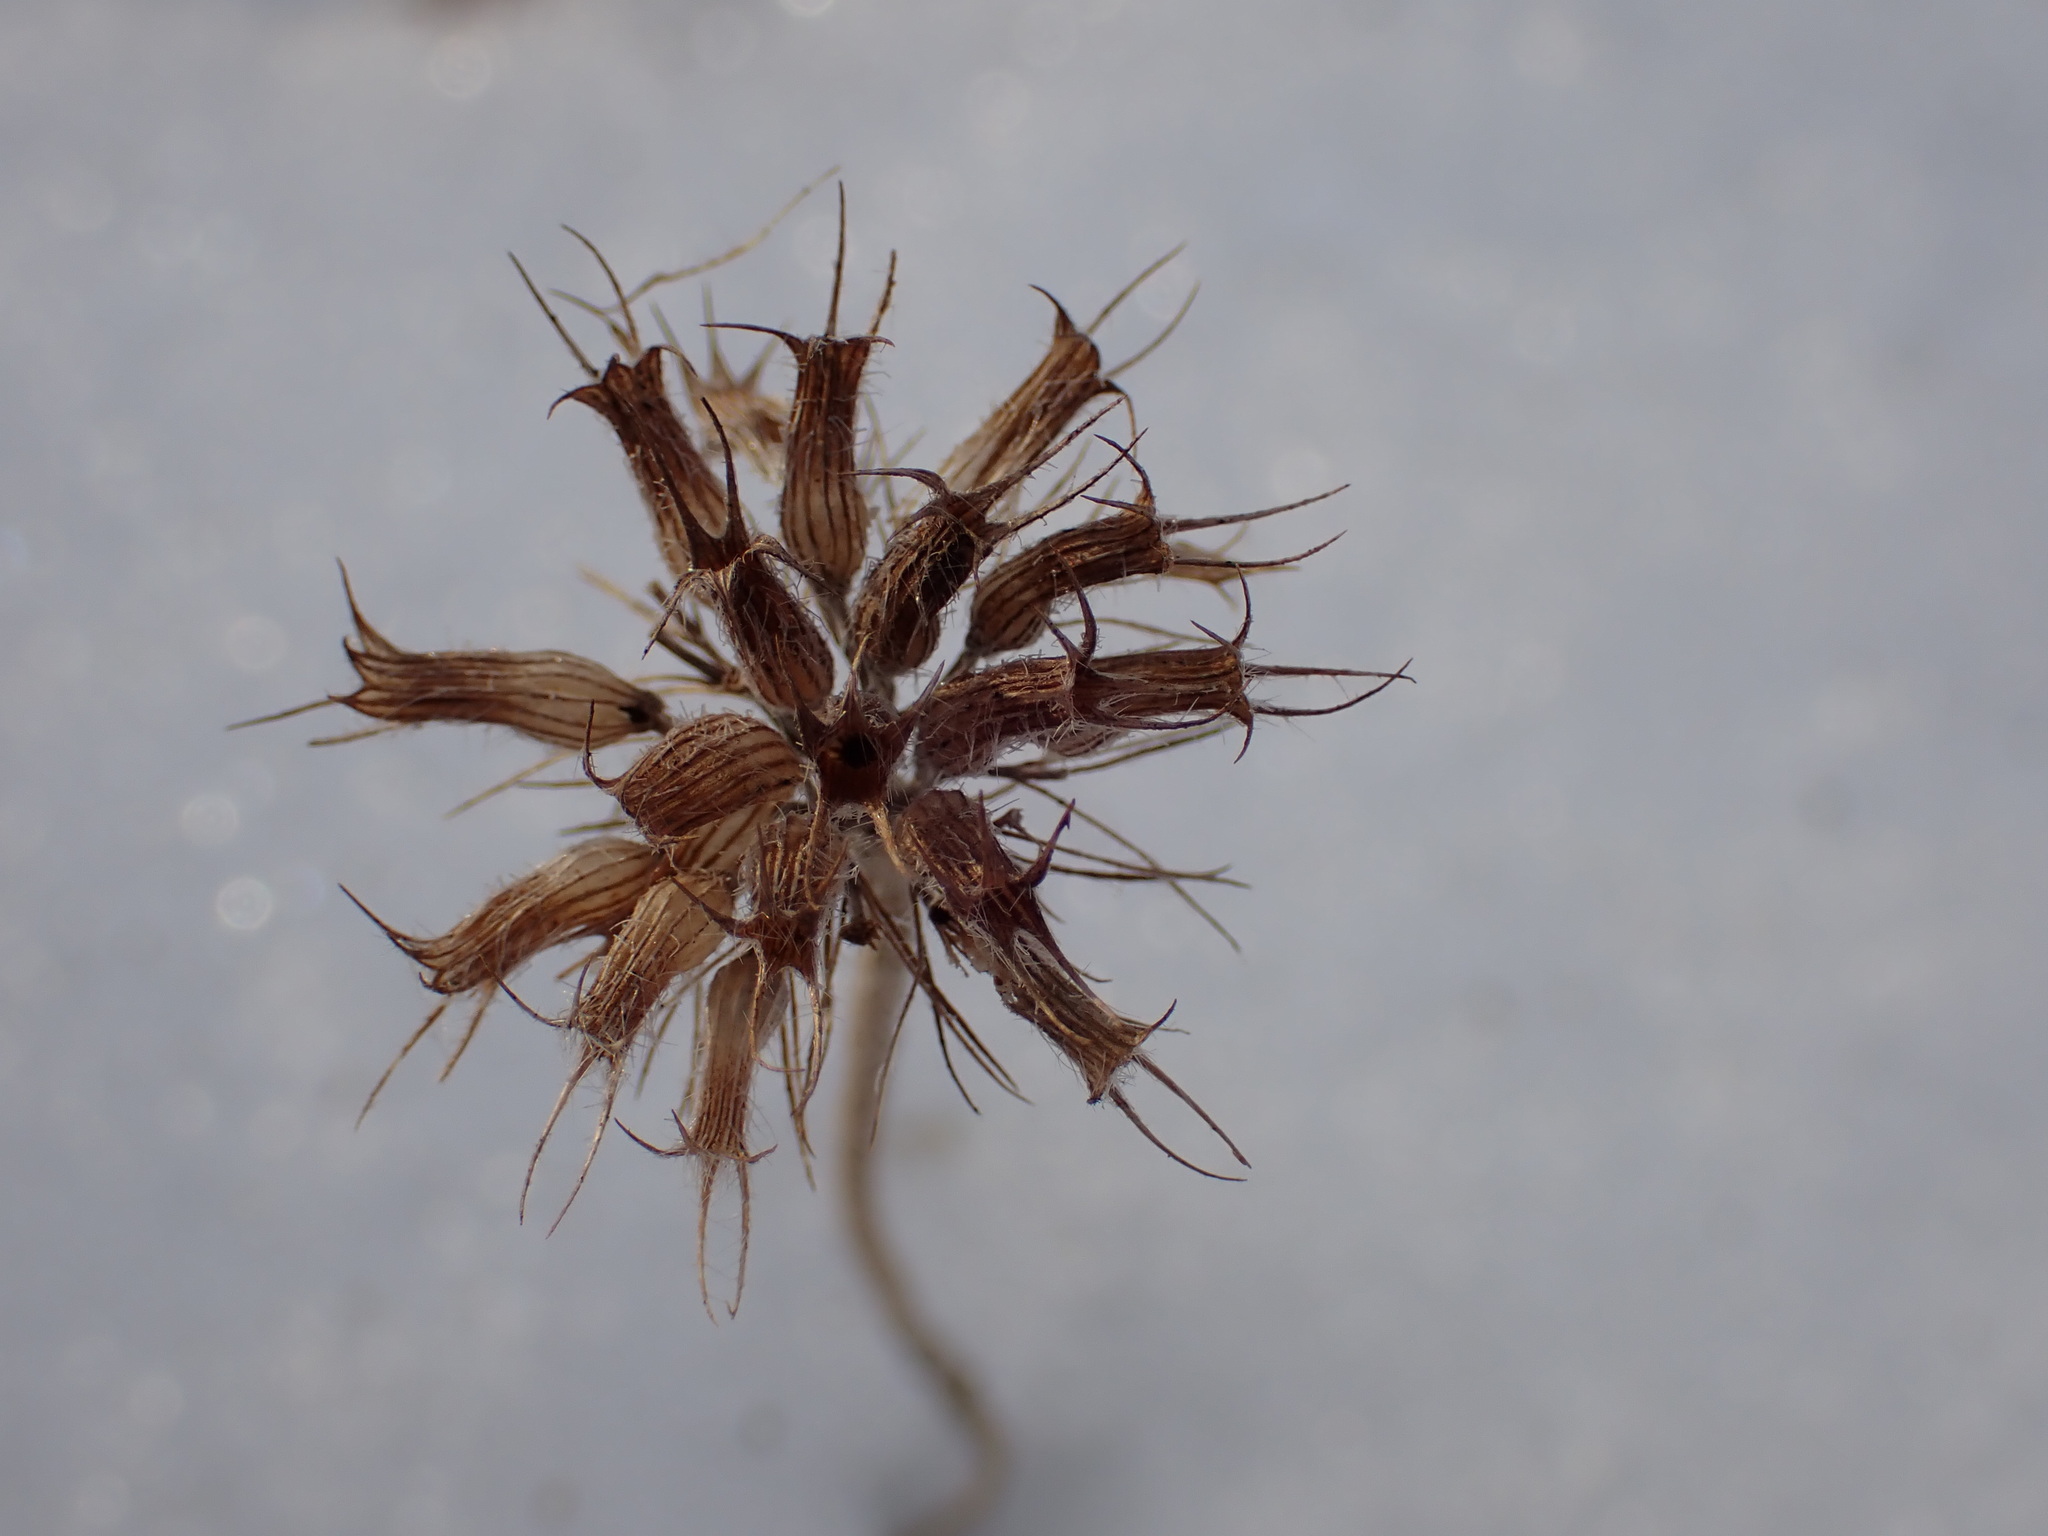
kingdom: Plantae
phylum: Tracheophyta
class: Magnoliopsida
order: Lamiales
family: Lamiaceae
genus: Clinopodium
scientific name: Clinopodium vulgare
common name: Wild basil
